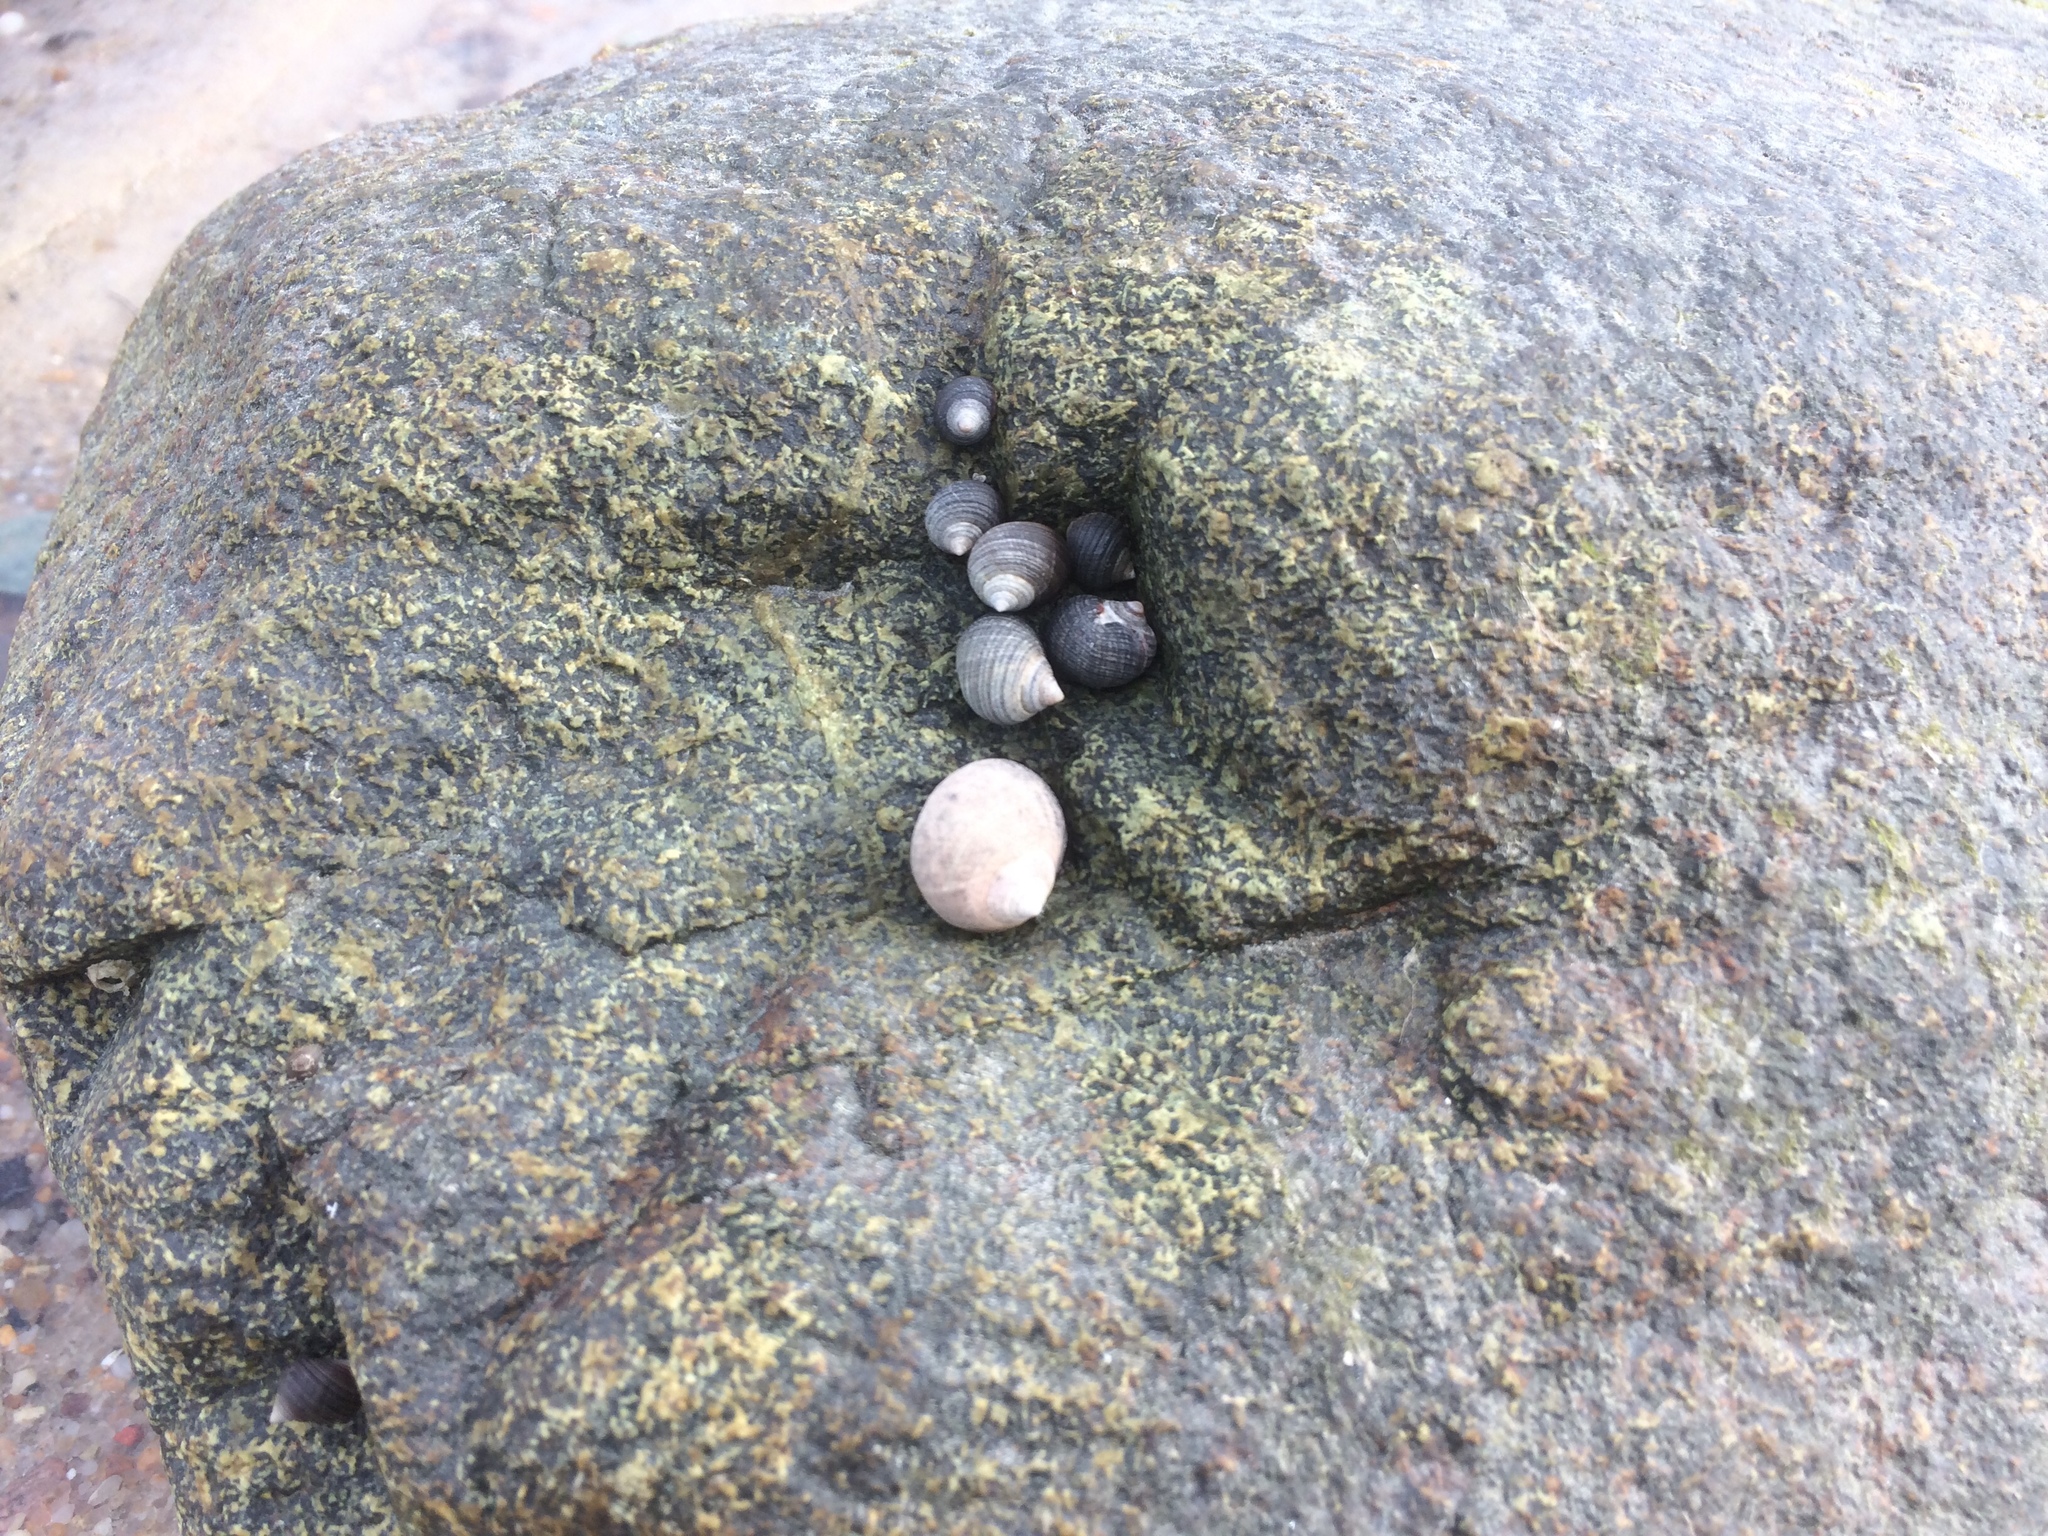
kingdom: Animalia
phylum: Mollusca
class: Gastropoda
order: Littorinimorpha
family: Littorinidae
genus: Littorina
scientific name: Littorina littorea
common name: Common periwinkle
